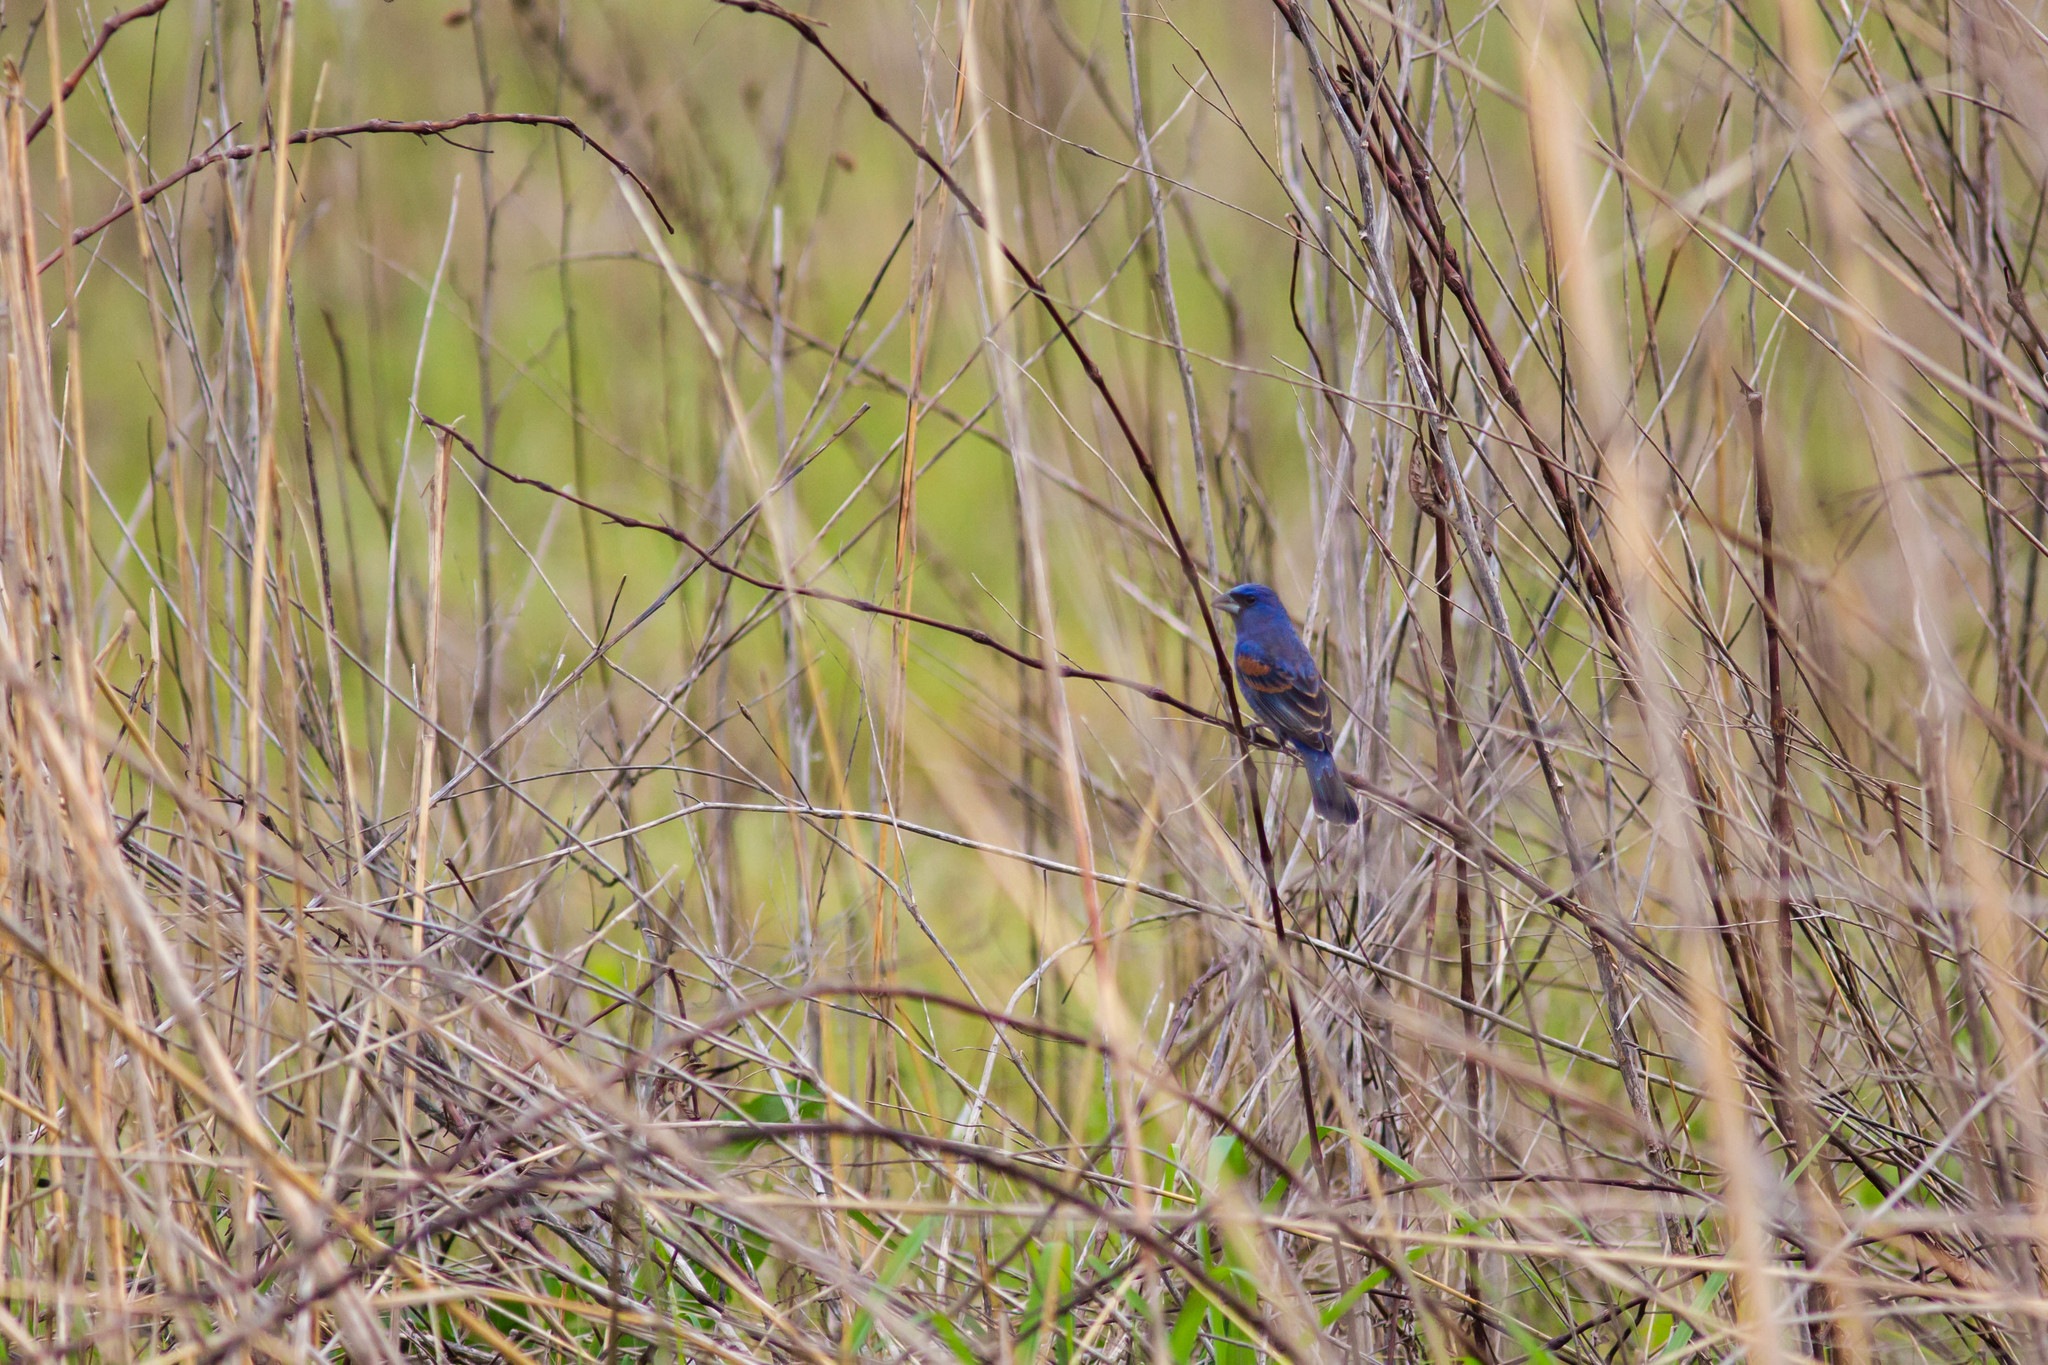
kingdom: Animalia
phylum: Chordata
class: Aves
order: Passeriformes
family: Cardinalidae
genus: Passerina
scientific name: Passerina caerulea
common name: Blue grosbeak
